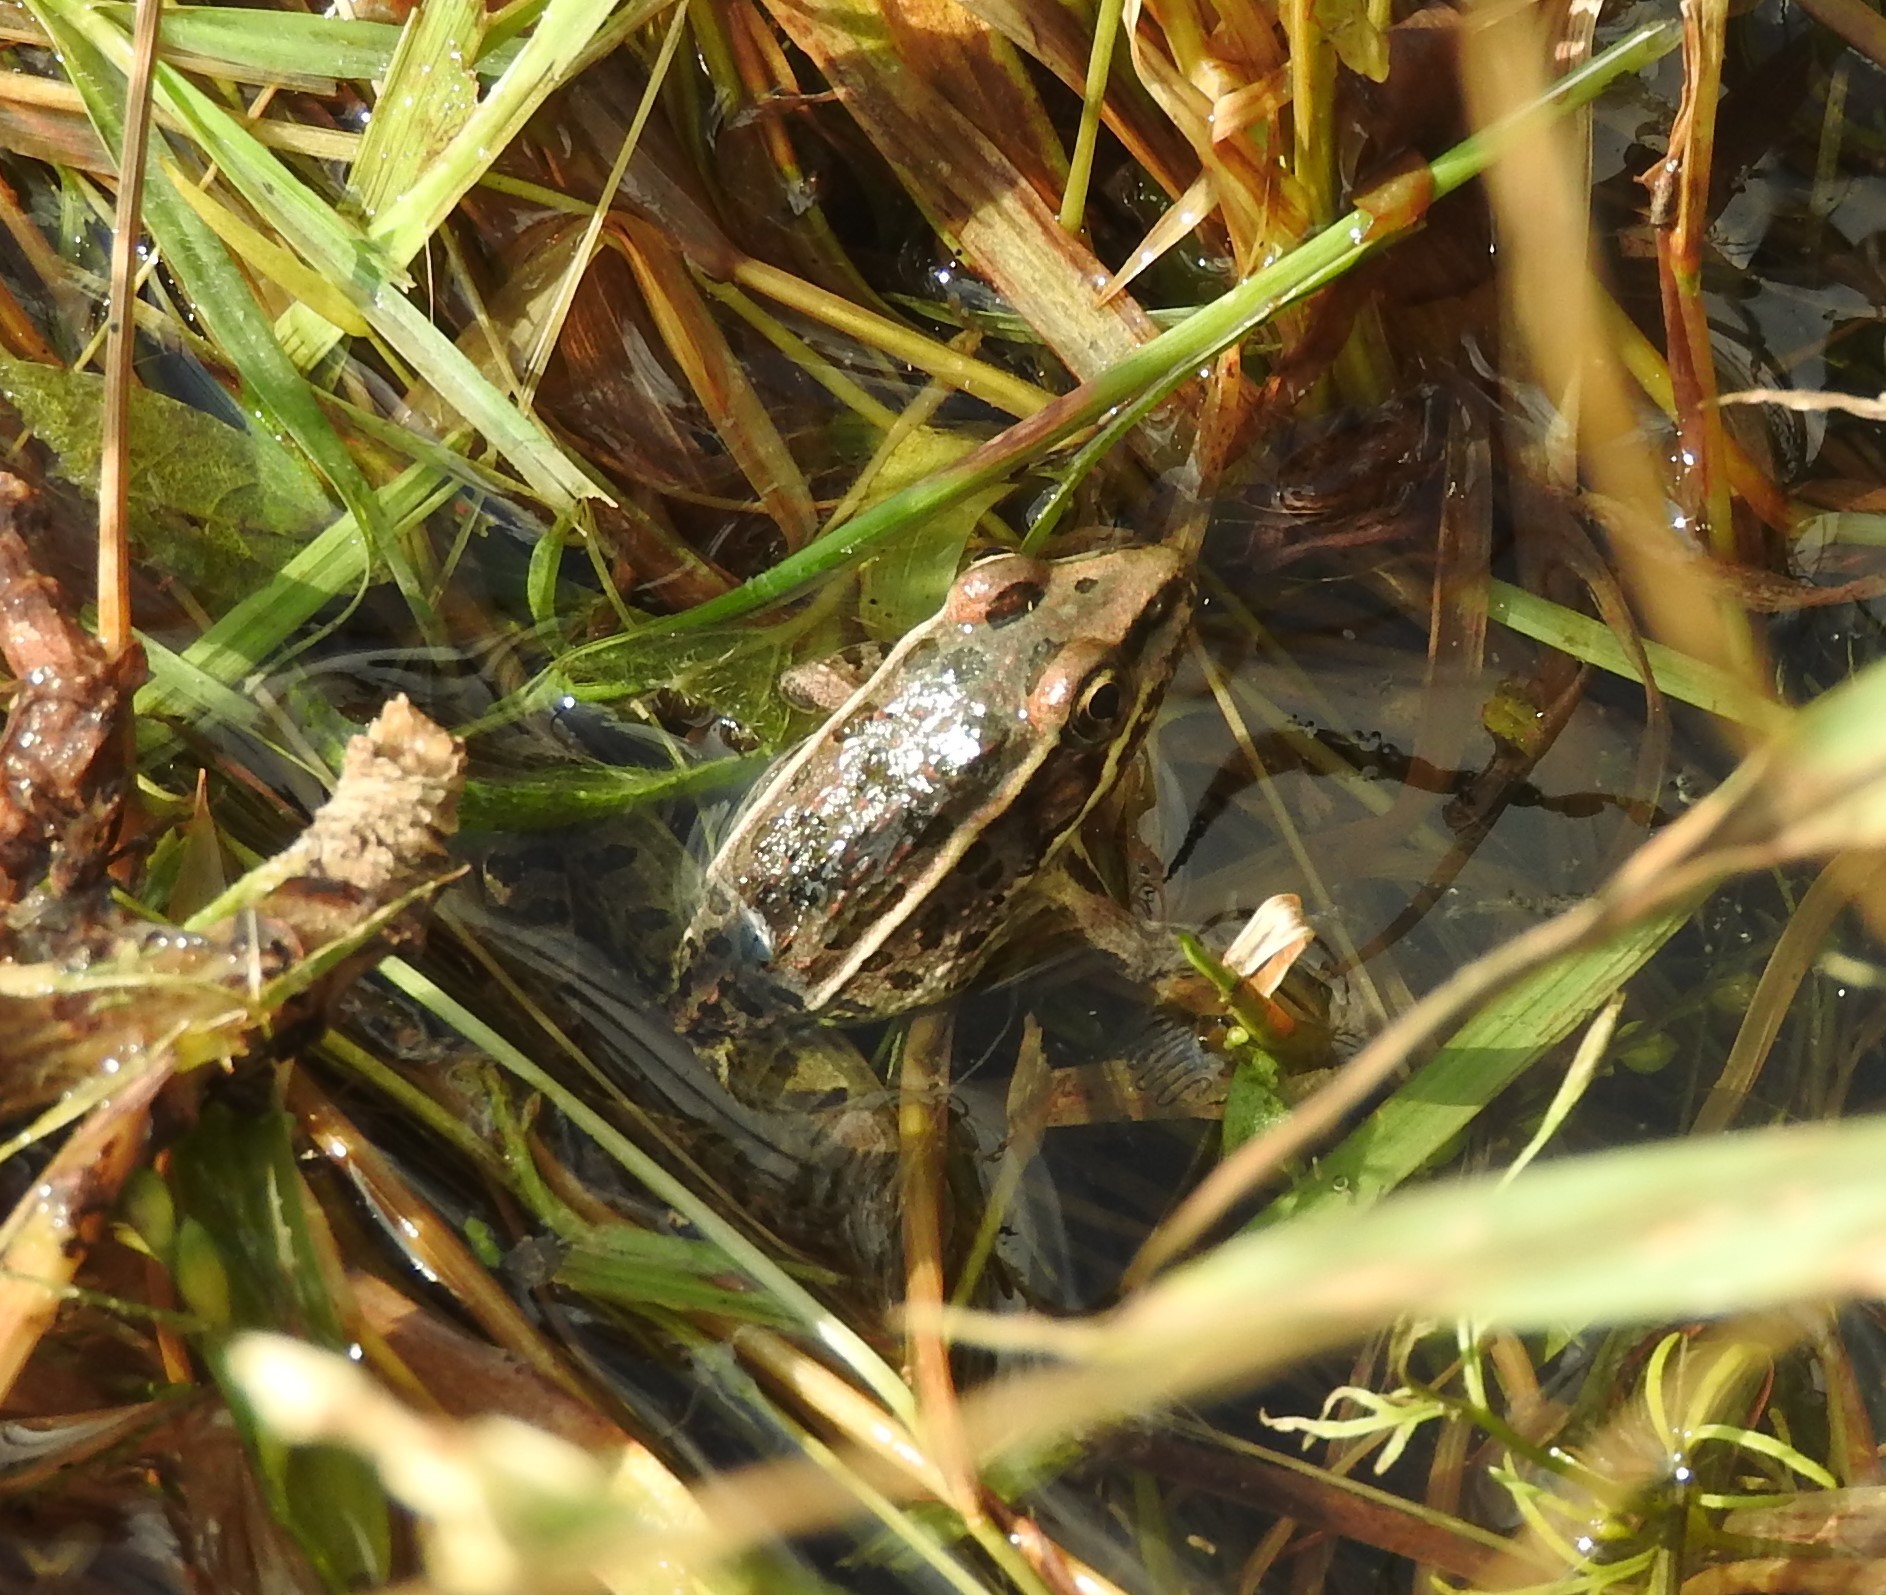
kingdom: Animalia
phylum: Chordata
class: Amphibia
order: Anura
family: Ranidae
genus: Lithobates
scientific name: Lithobates neovolcanicus
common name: Transverse volcanic leopard frog
